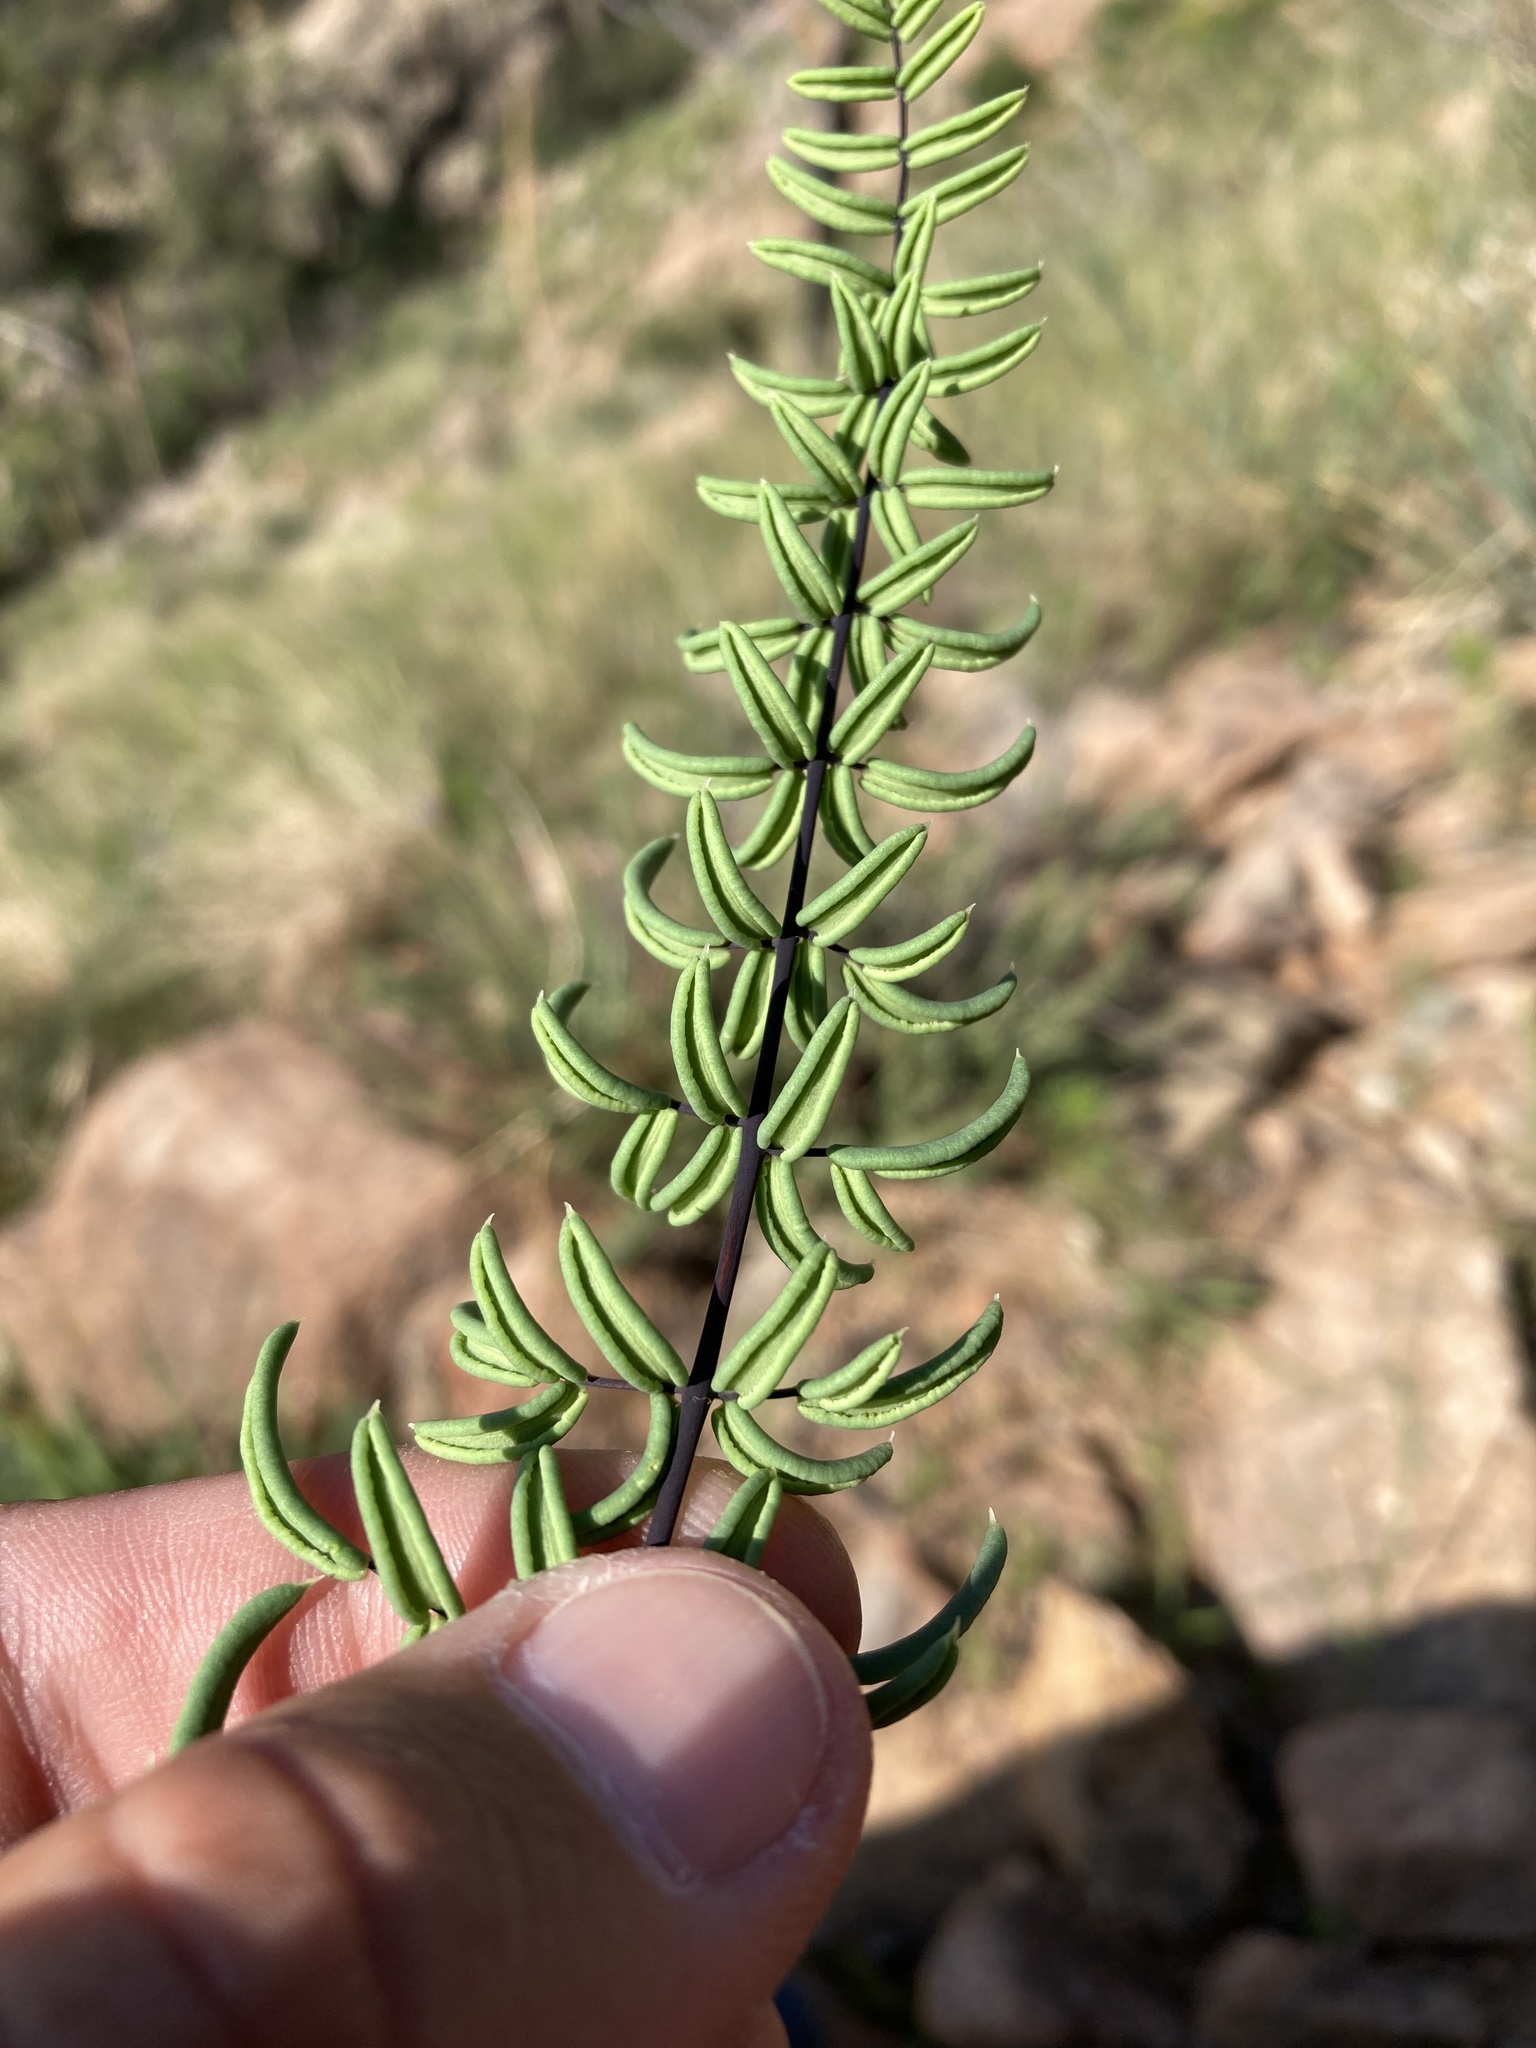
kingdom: Plantae
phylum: Tracheophyta
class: Polypodiopsida
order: Polypodiales
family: Pteridaceae
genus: Pellaea
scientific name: Pellaea wrightiana
